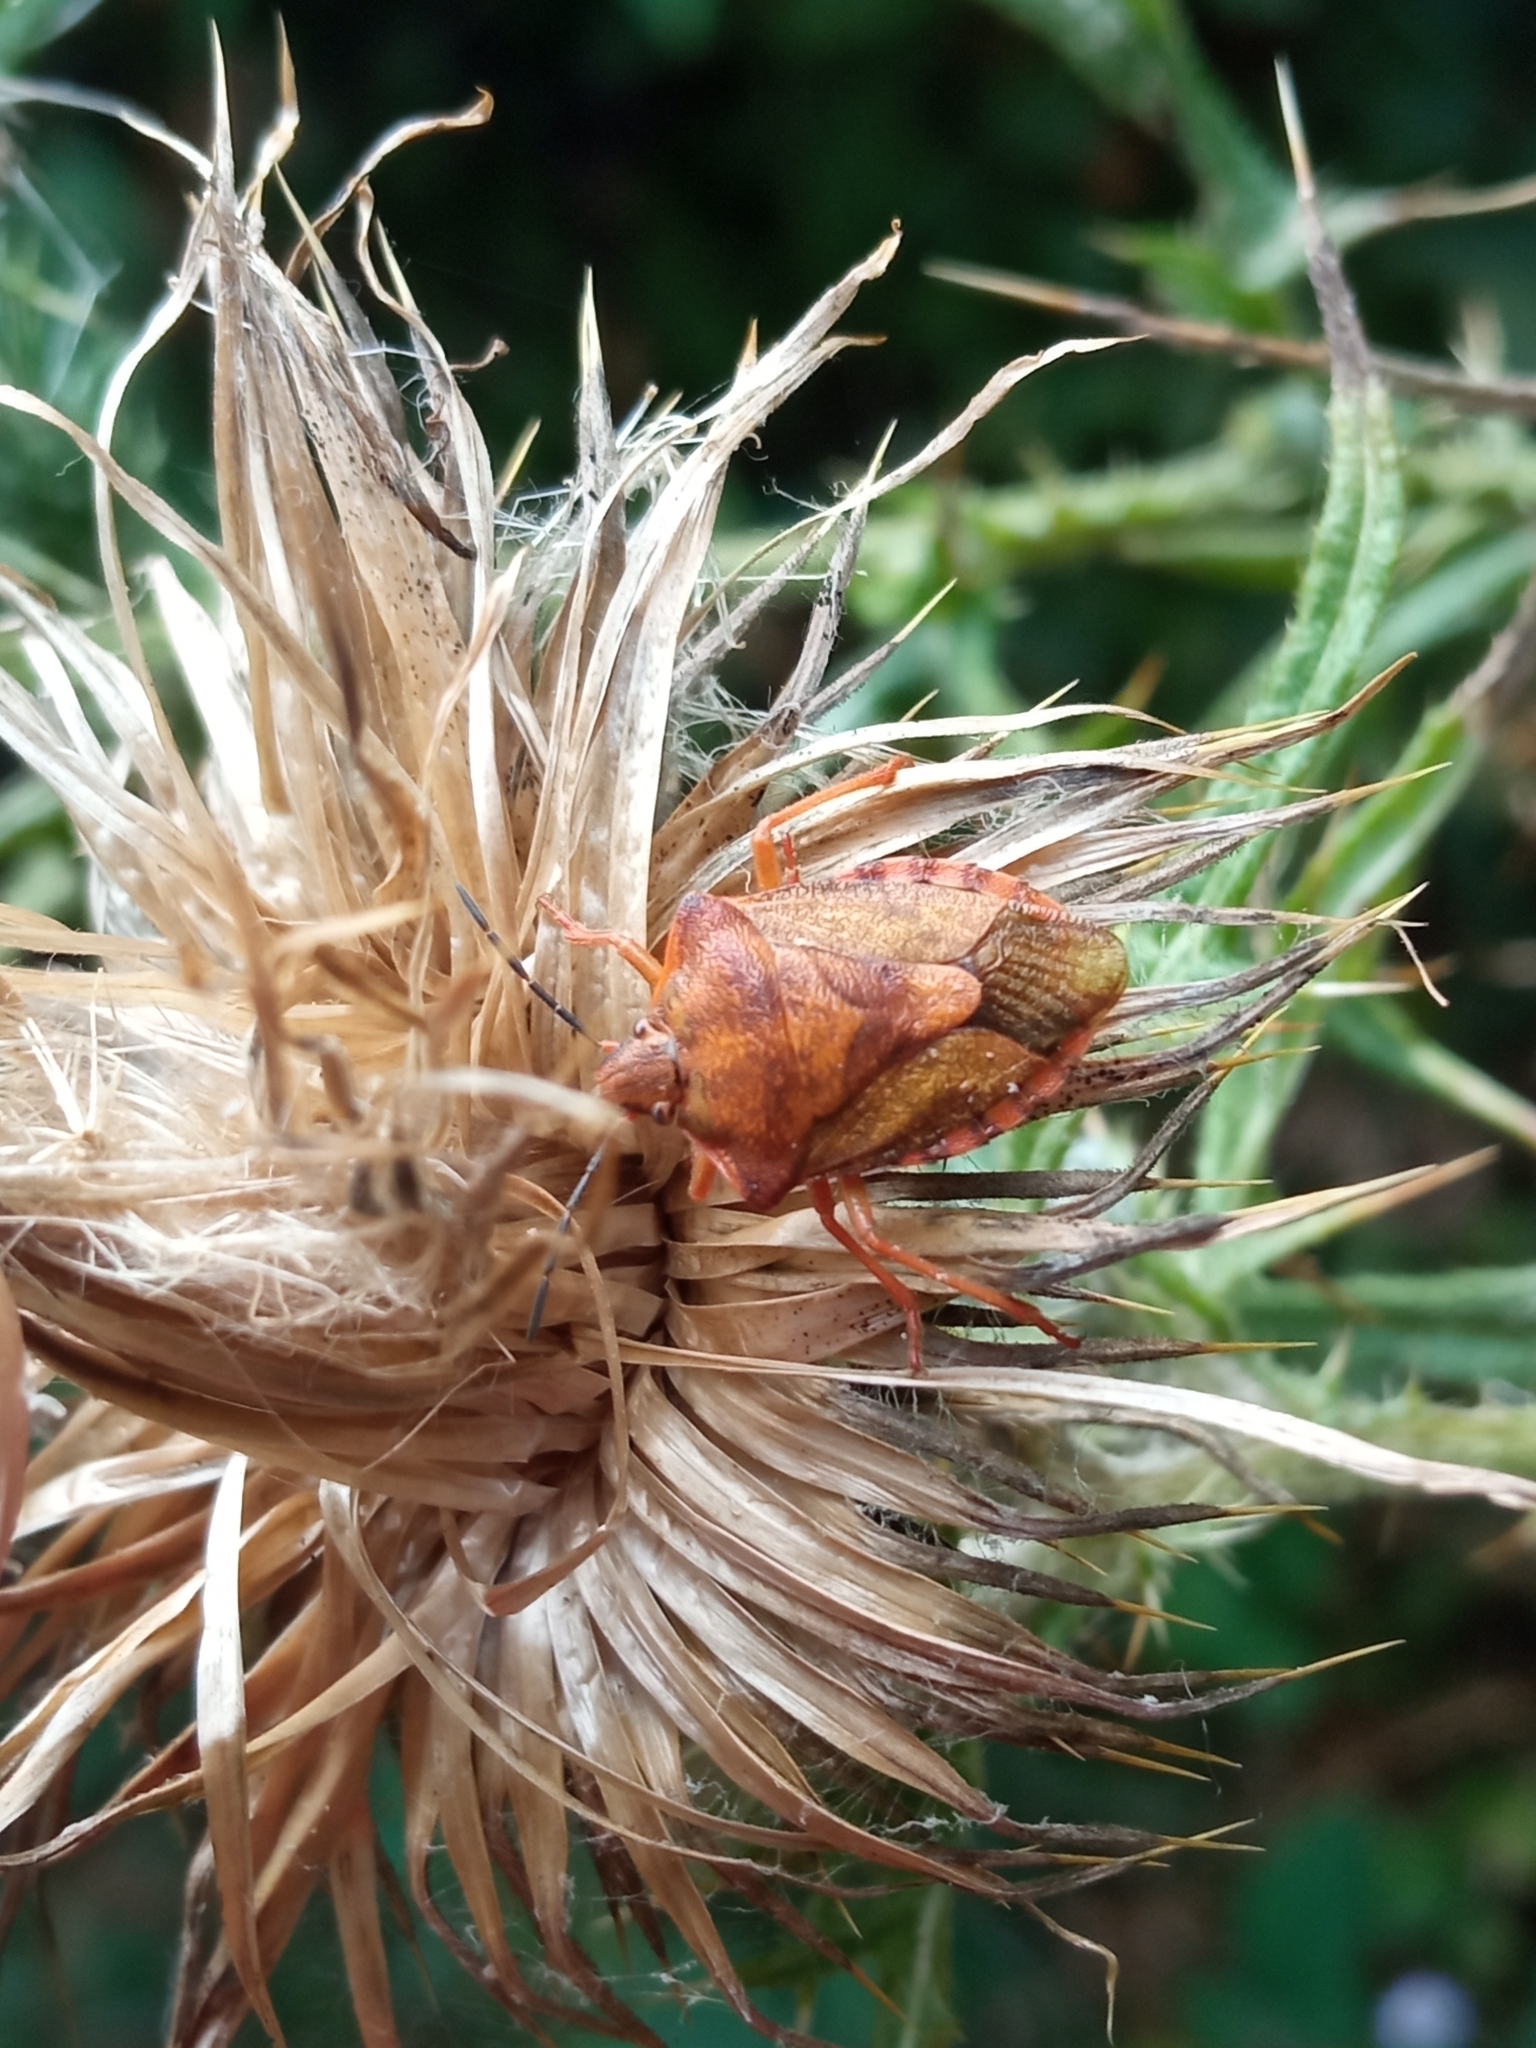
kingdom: Animalia
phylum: Arthropoda
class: Insecta
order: Hemiptera
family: Pentatomidae
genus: Carpocoris
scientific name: Carpocoris purpureipennis
